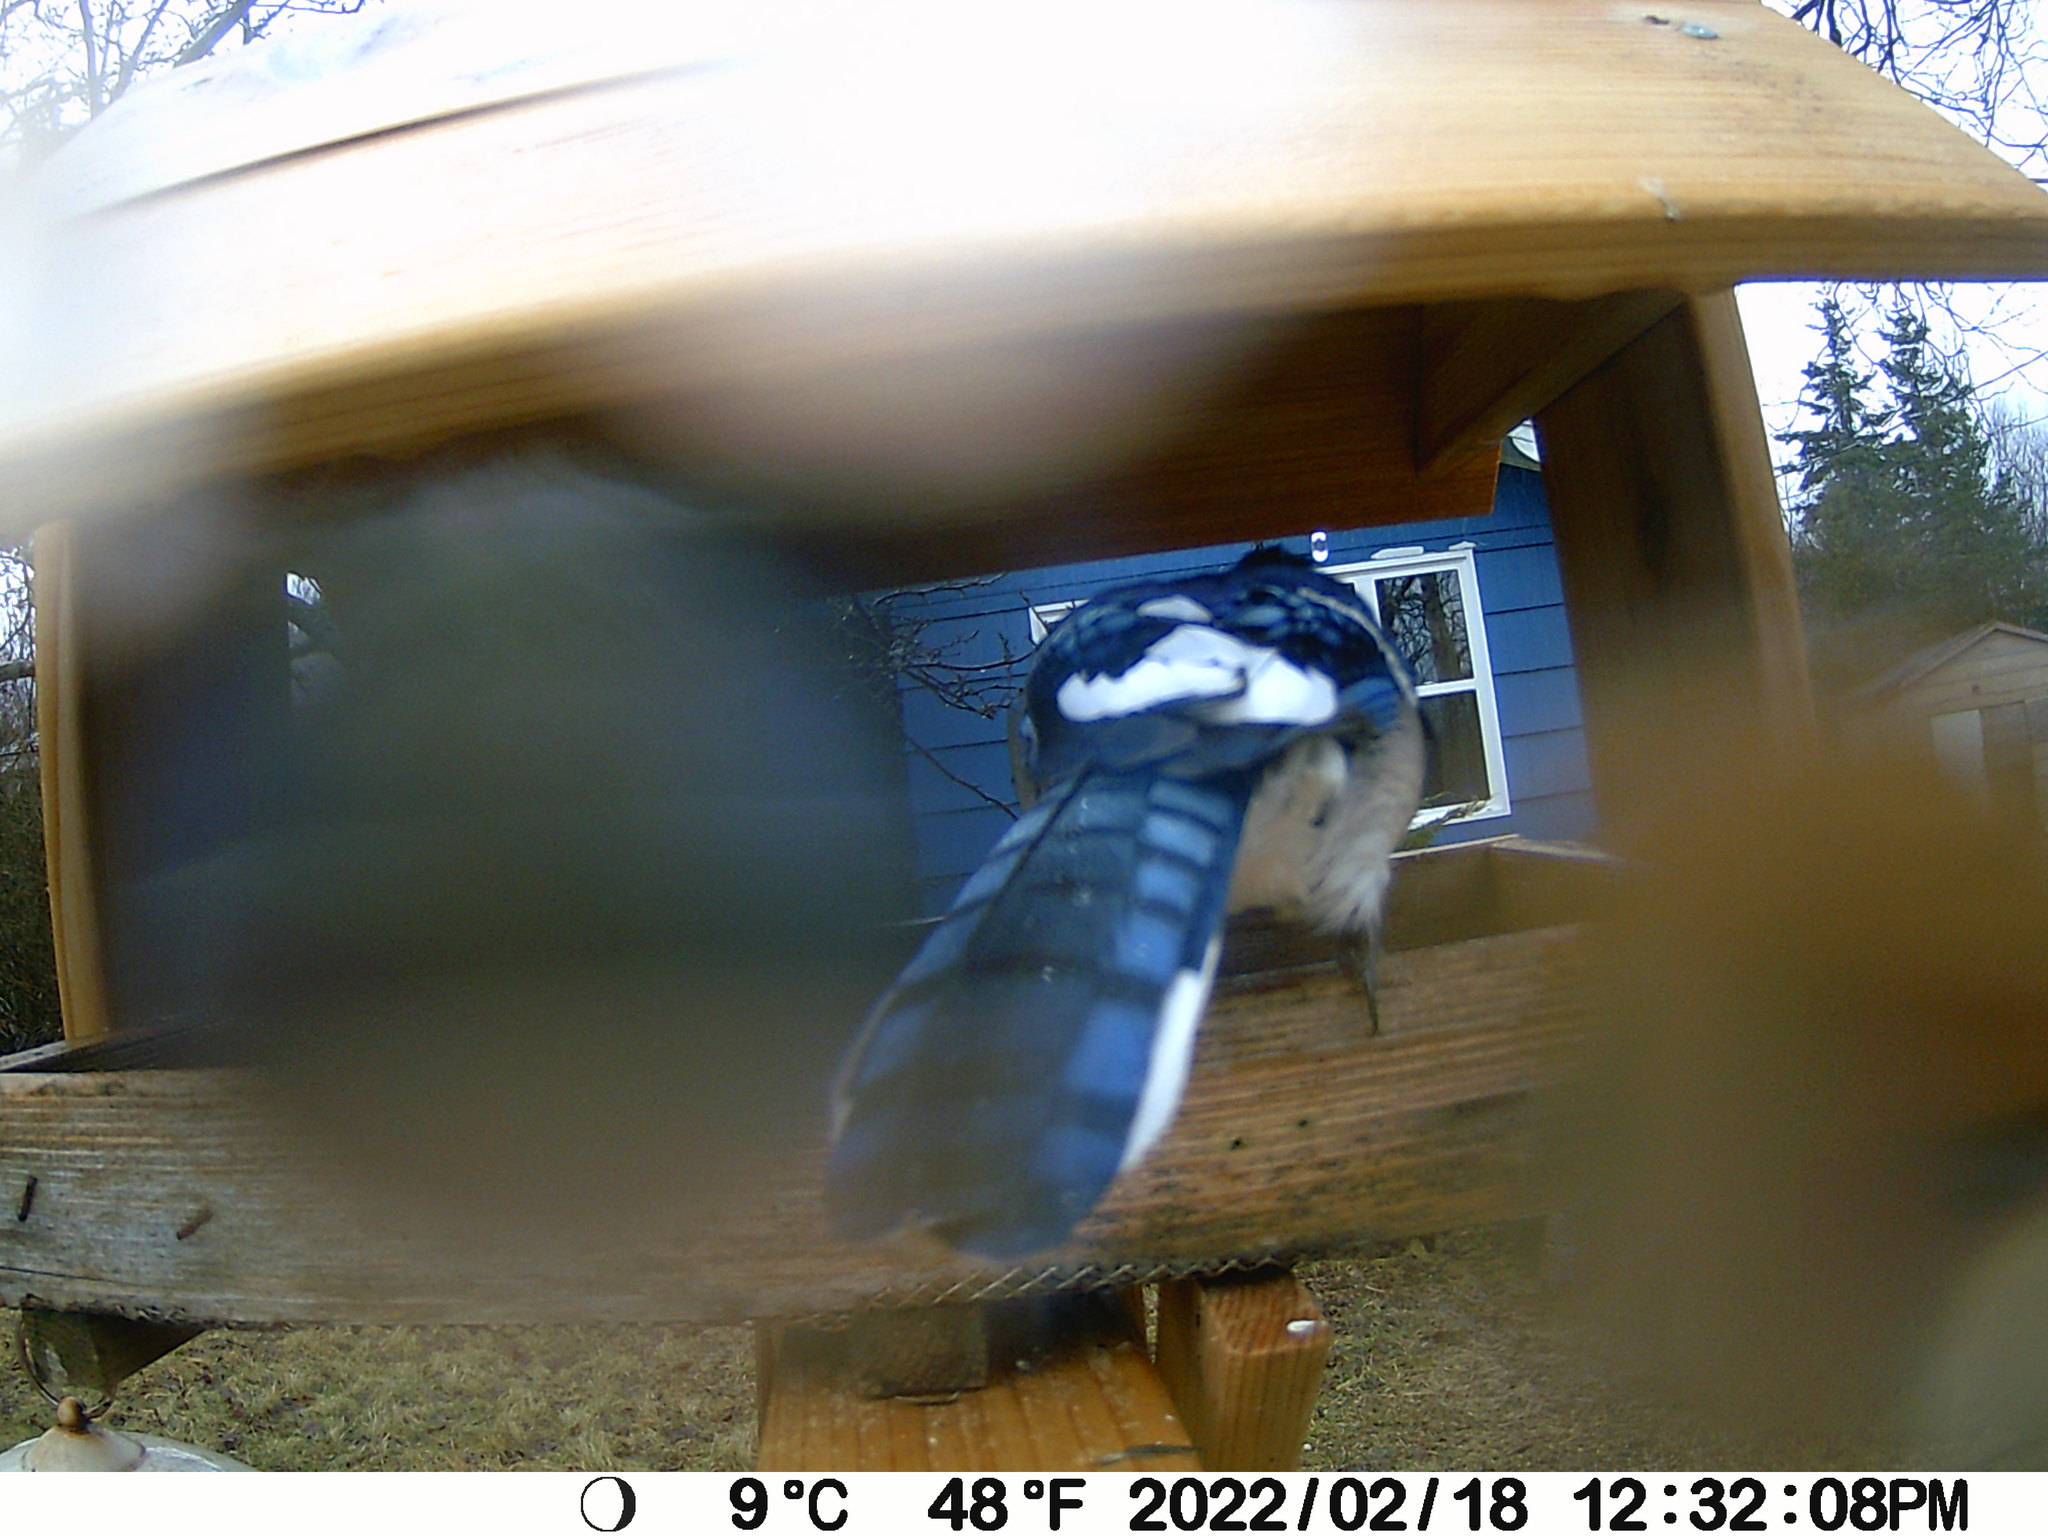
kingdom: Animalia
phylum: Chordata
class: Aves
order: Passeriformes
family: Corvidae
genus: Cyanocitta
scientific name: Cyanocitta cristata
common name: Blue jay
